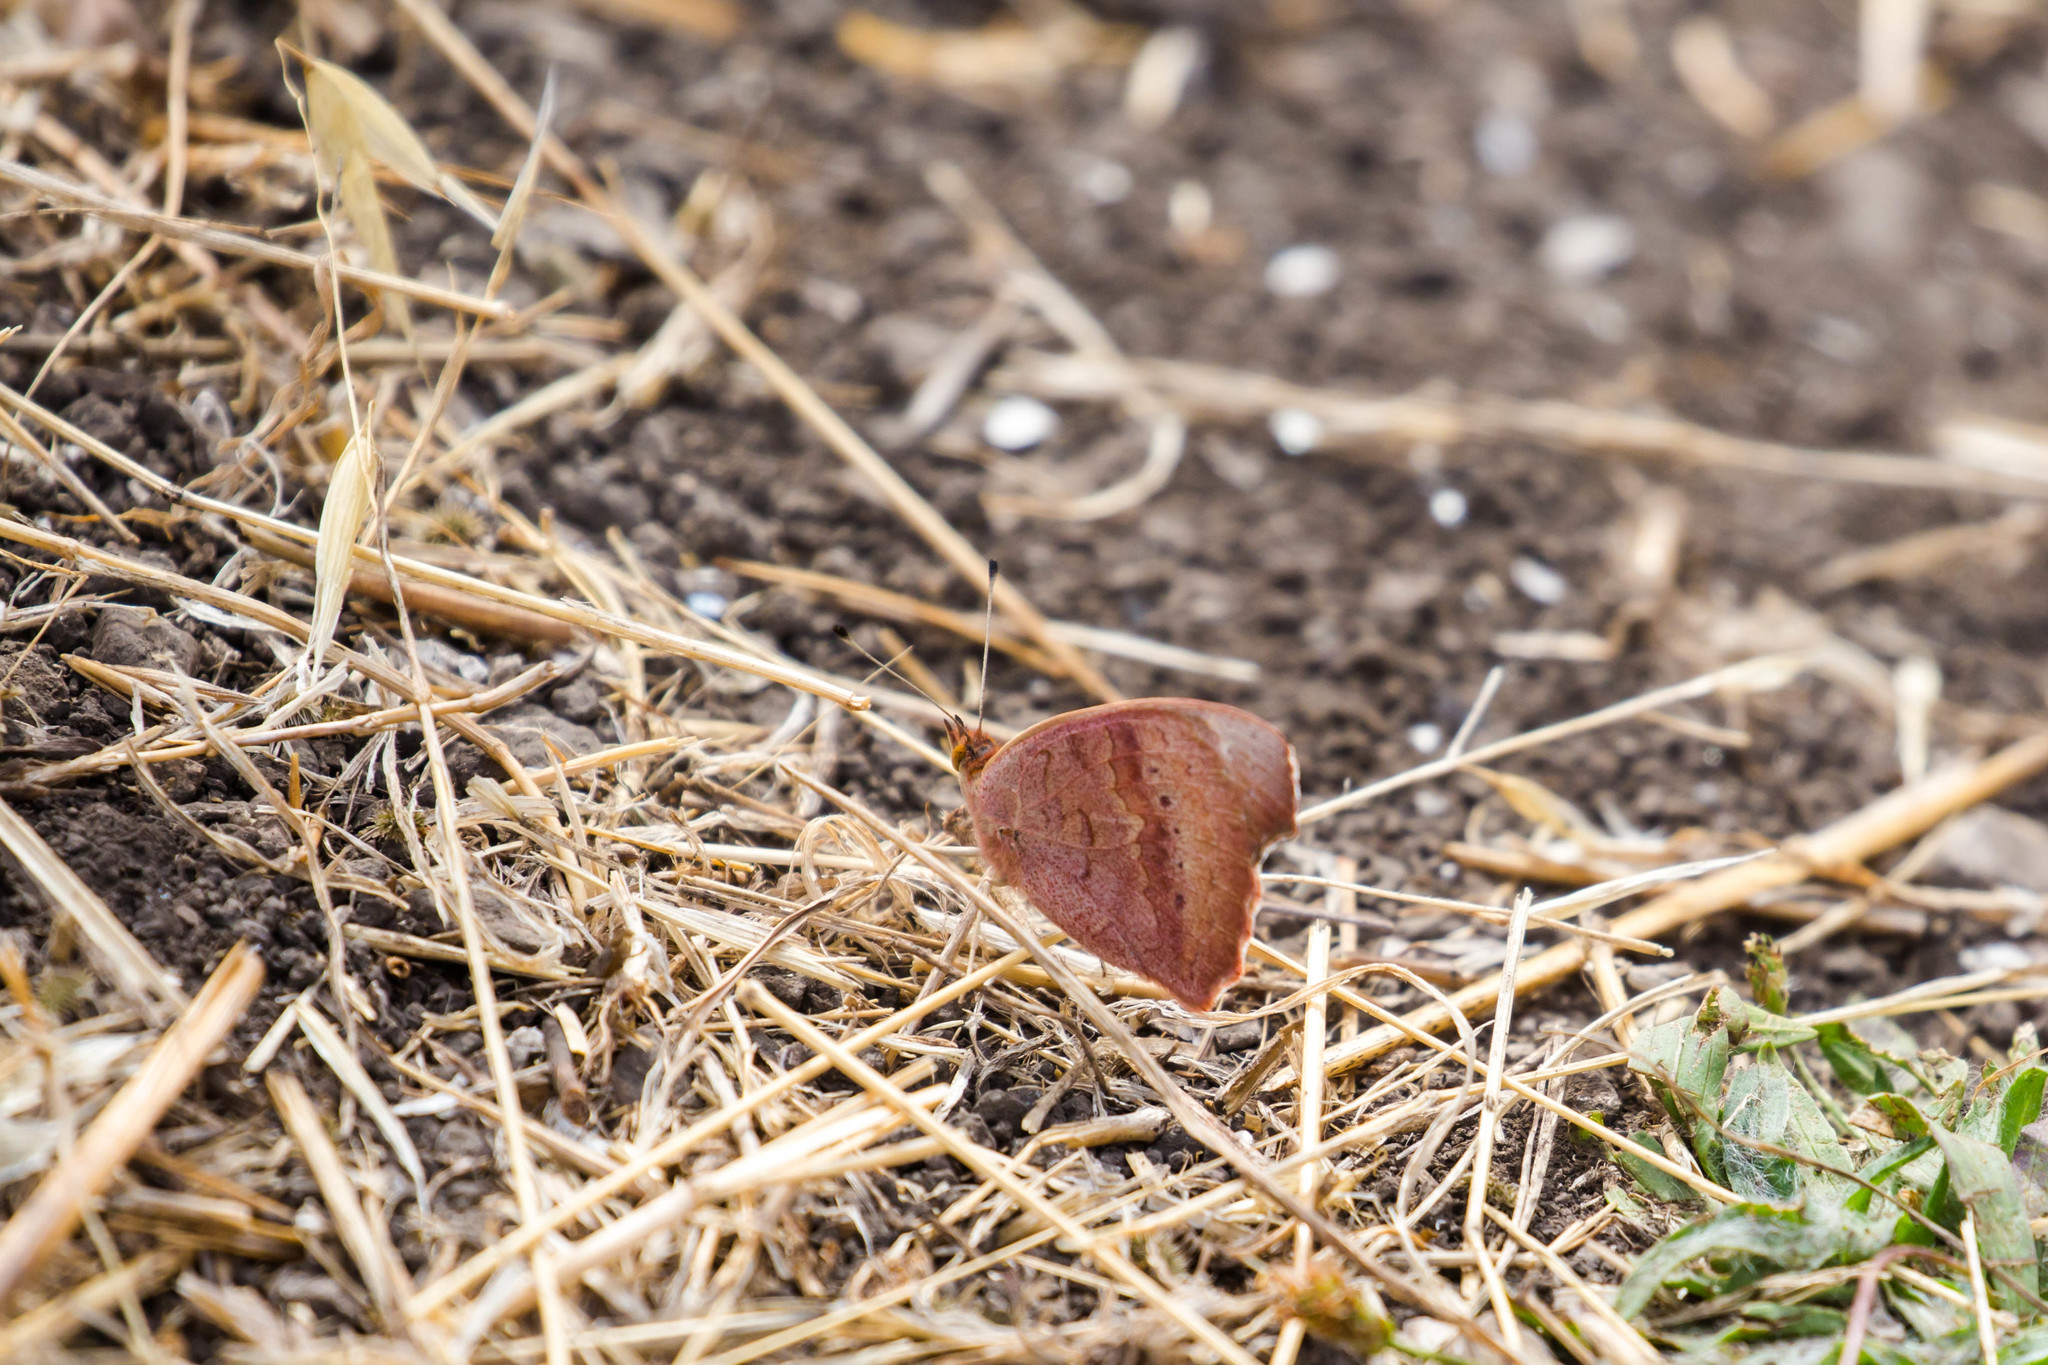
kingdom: Animalia
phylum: Arthropoda
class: Insecta
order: Lepidoptera
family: Nymphalidae
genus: Junonia
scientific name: Junonia grisea
